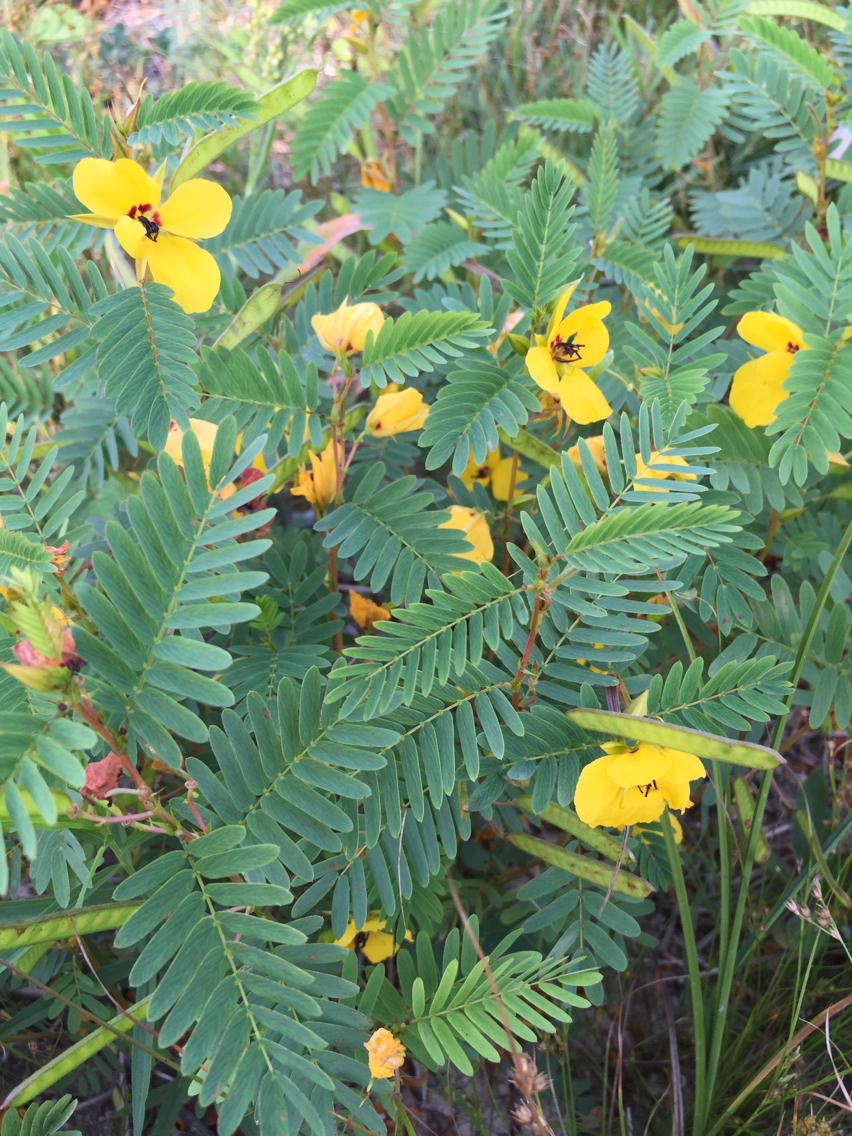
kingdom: Plantae
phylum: Tracheophyta
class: Magnoliopsida
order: Fabales
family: Fabaceae
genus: Chamaecrista
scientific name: Chamaecrista fasciculata
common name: Golden cassia
